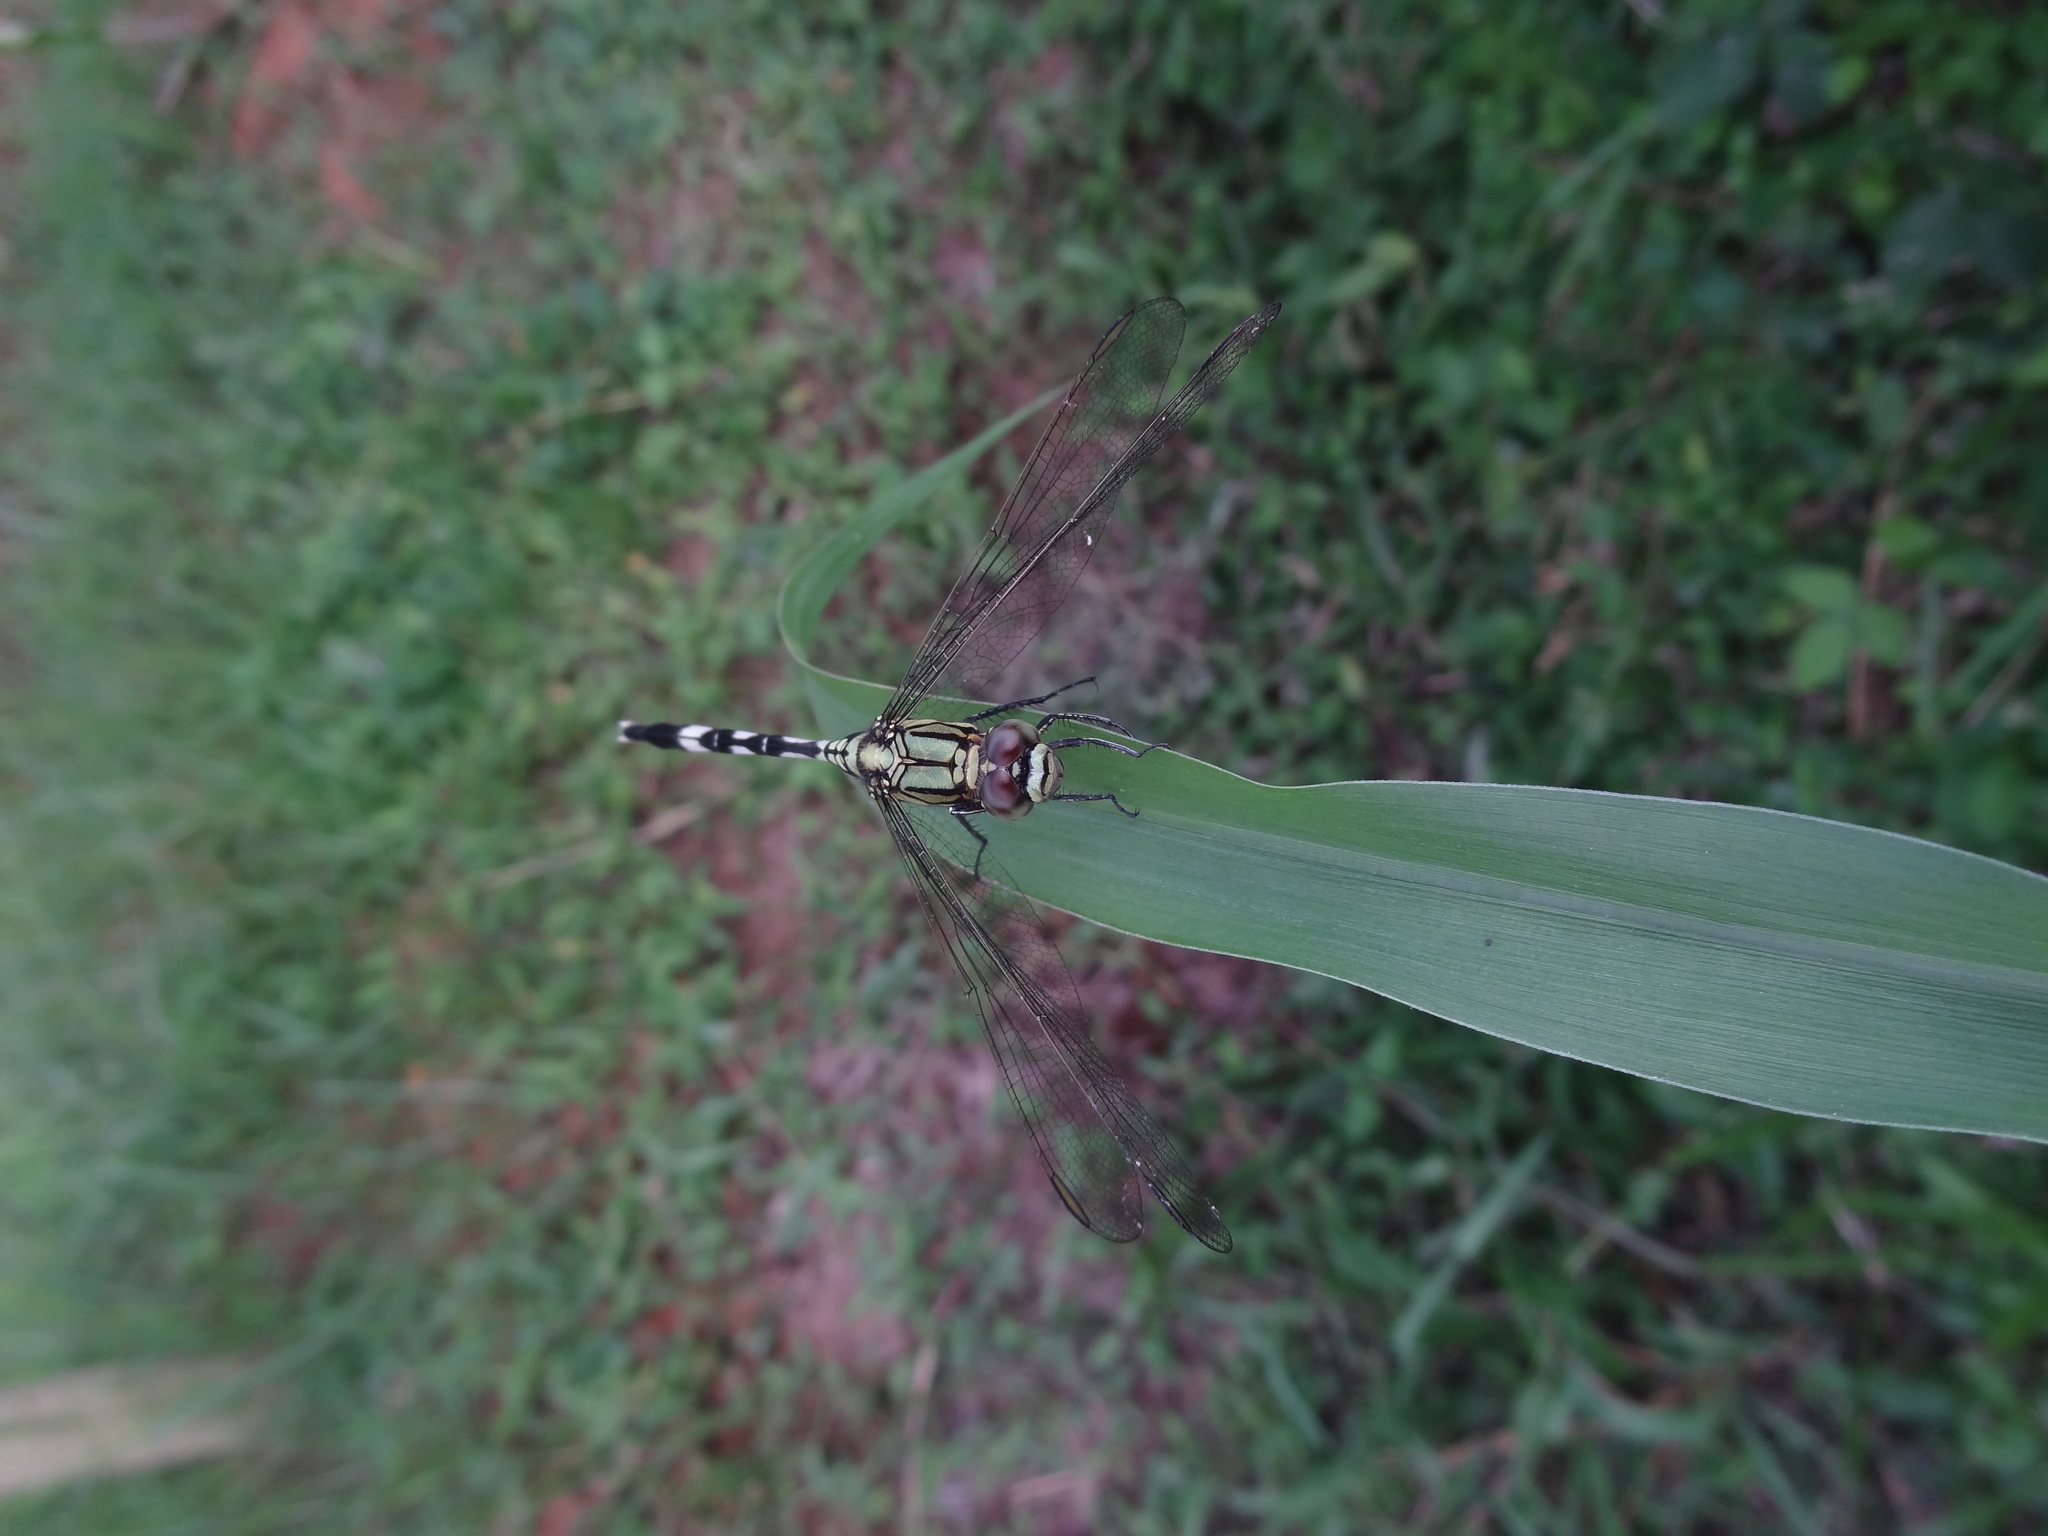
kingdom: Animalia
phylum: Arthropoda
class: Insecta
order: Odonata
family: Libellulidae
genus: Orthetrum
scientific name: Orthetrum sabina
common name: Slender skimmer
